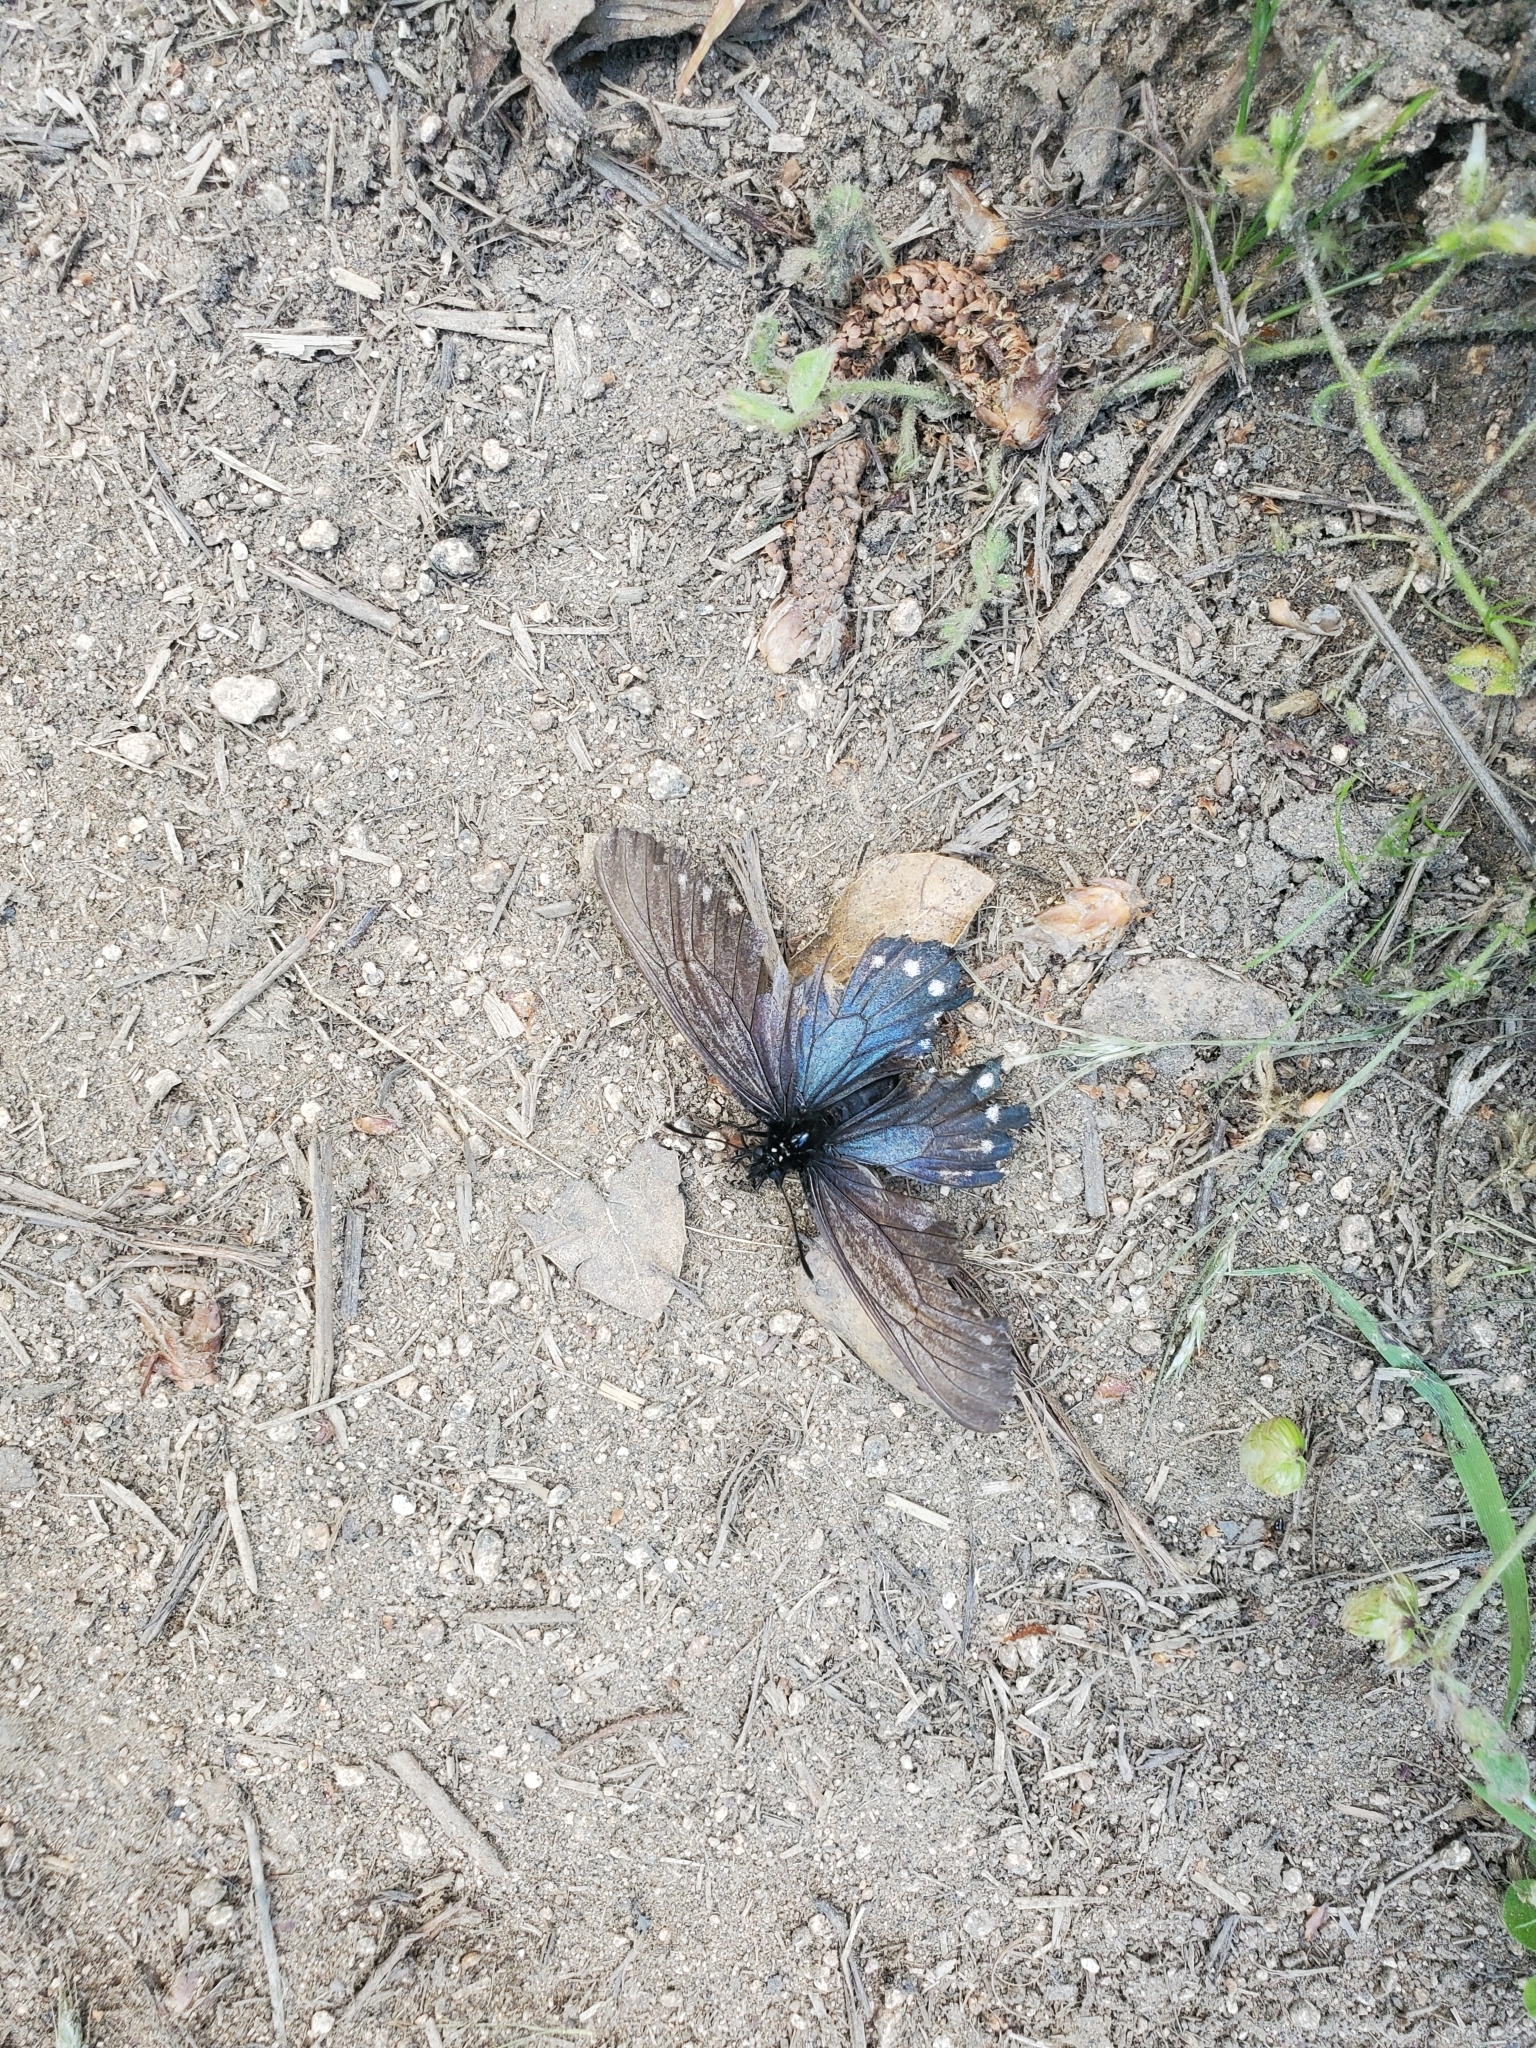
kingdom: Animalia
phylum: Arthropoda
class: Insecta
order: Lepidoptera
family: Papilionidae
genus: Battus
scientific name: Battus philenor
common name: Pipevine swallowtail
